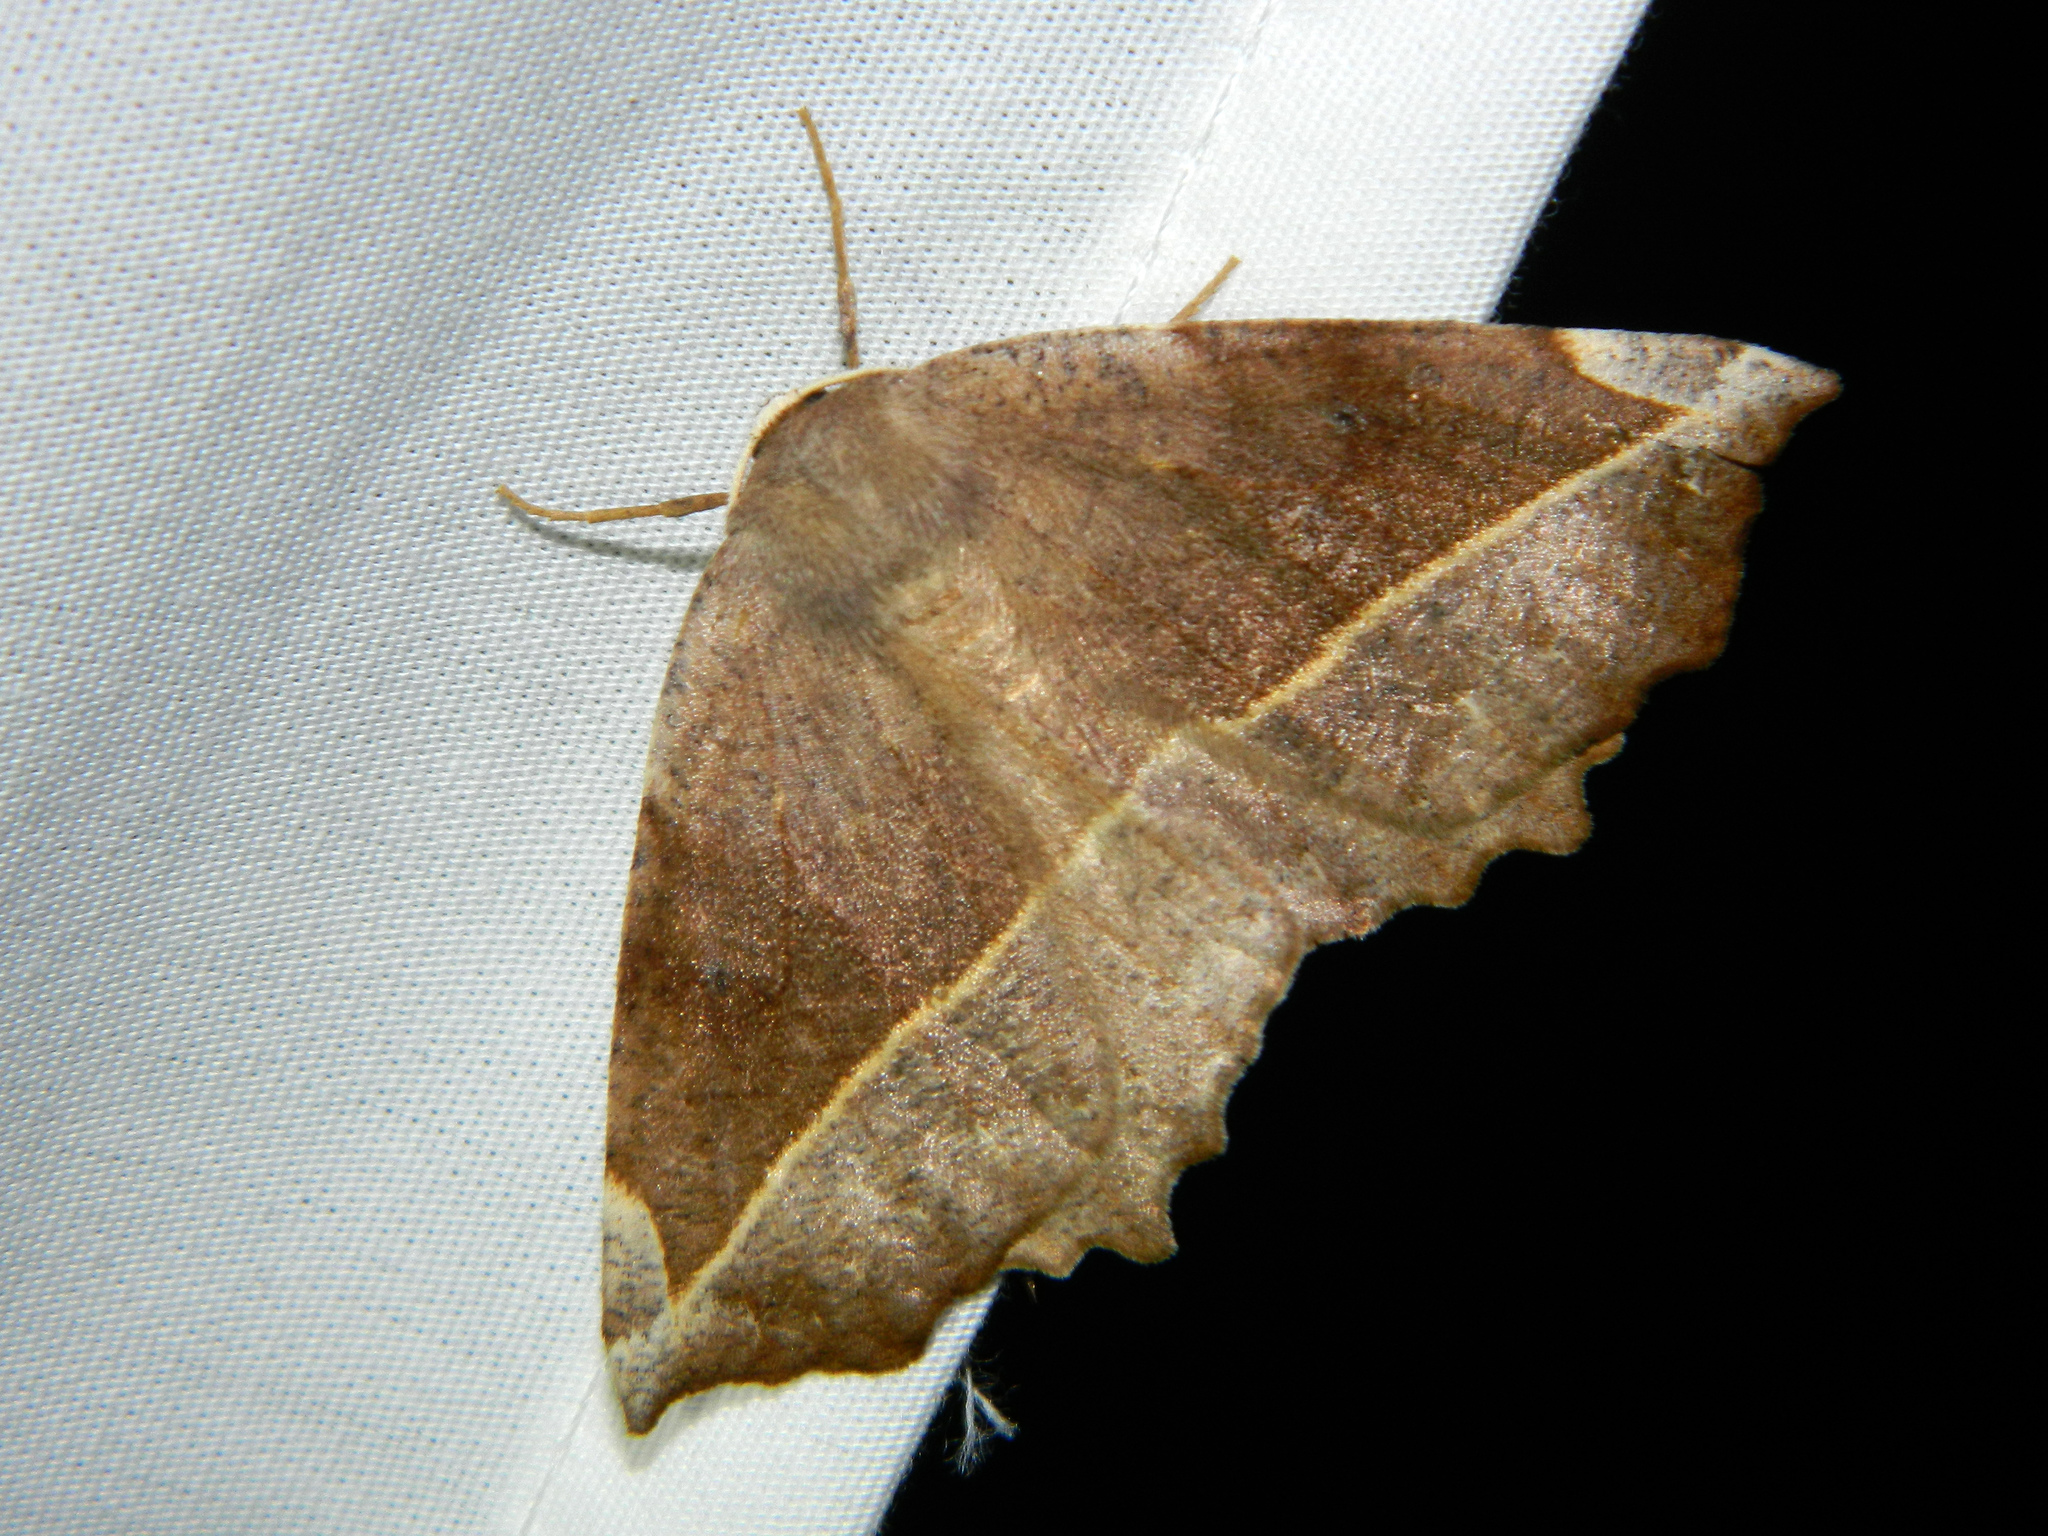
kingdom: Animalia
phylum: Arthropoda
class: Insecta
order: Lepidoptera
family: Geometridae
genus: Eutrapela
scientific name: Eutrapela clemataria
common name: Curved-toothed geometer
